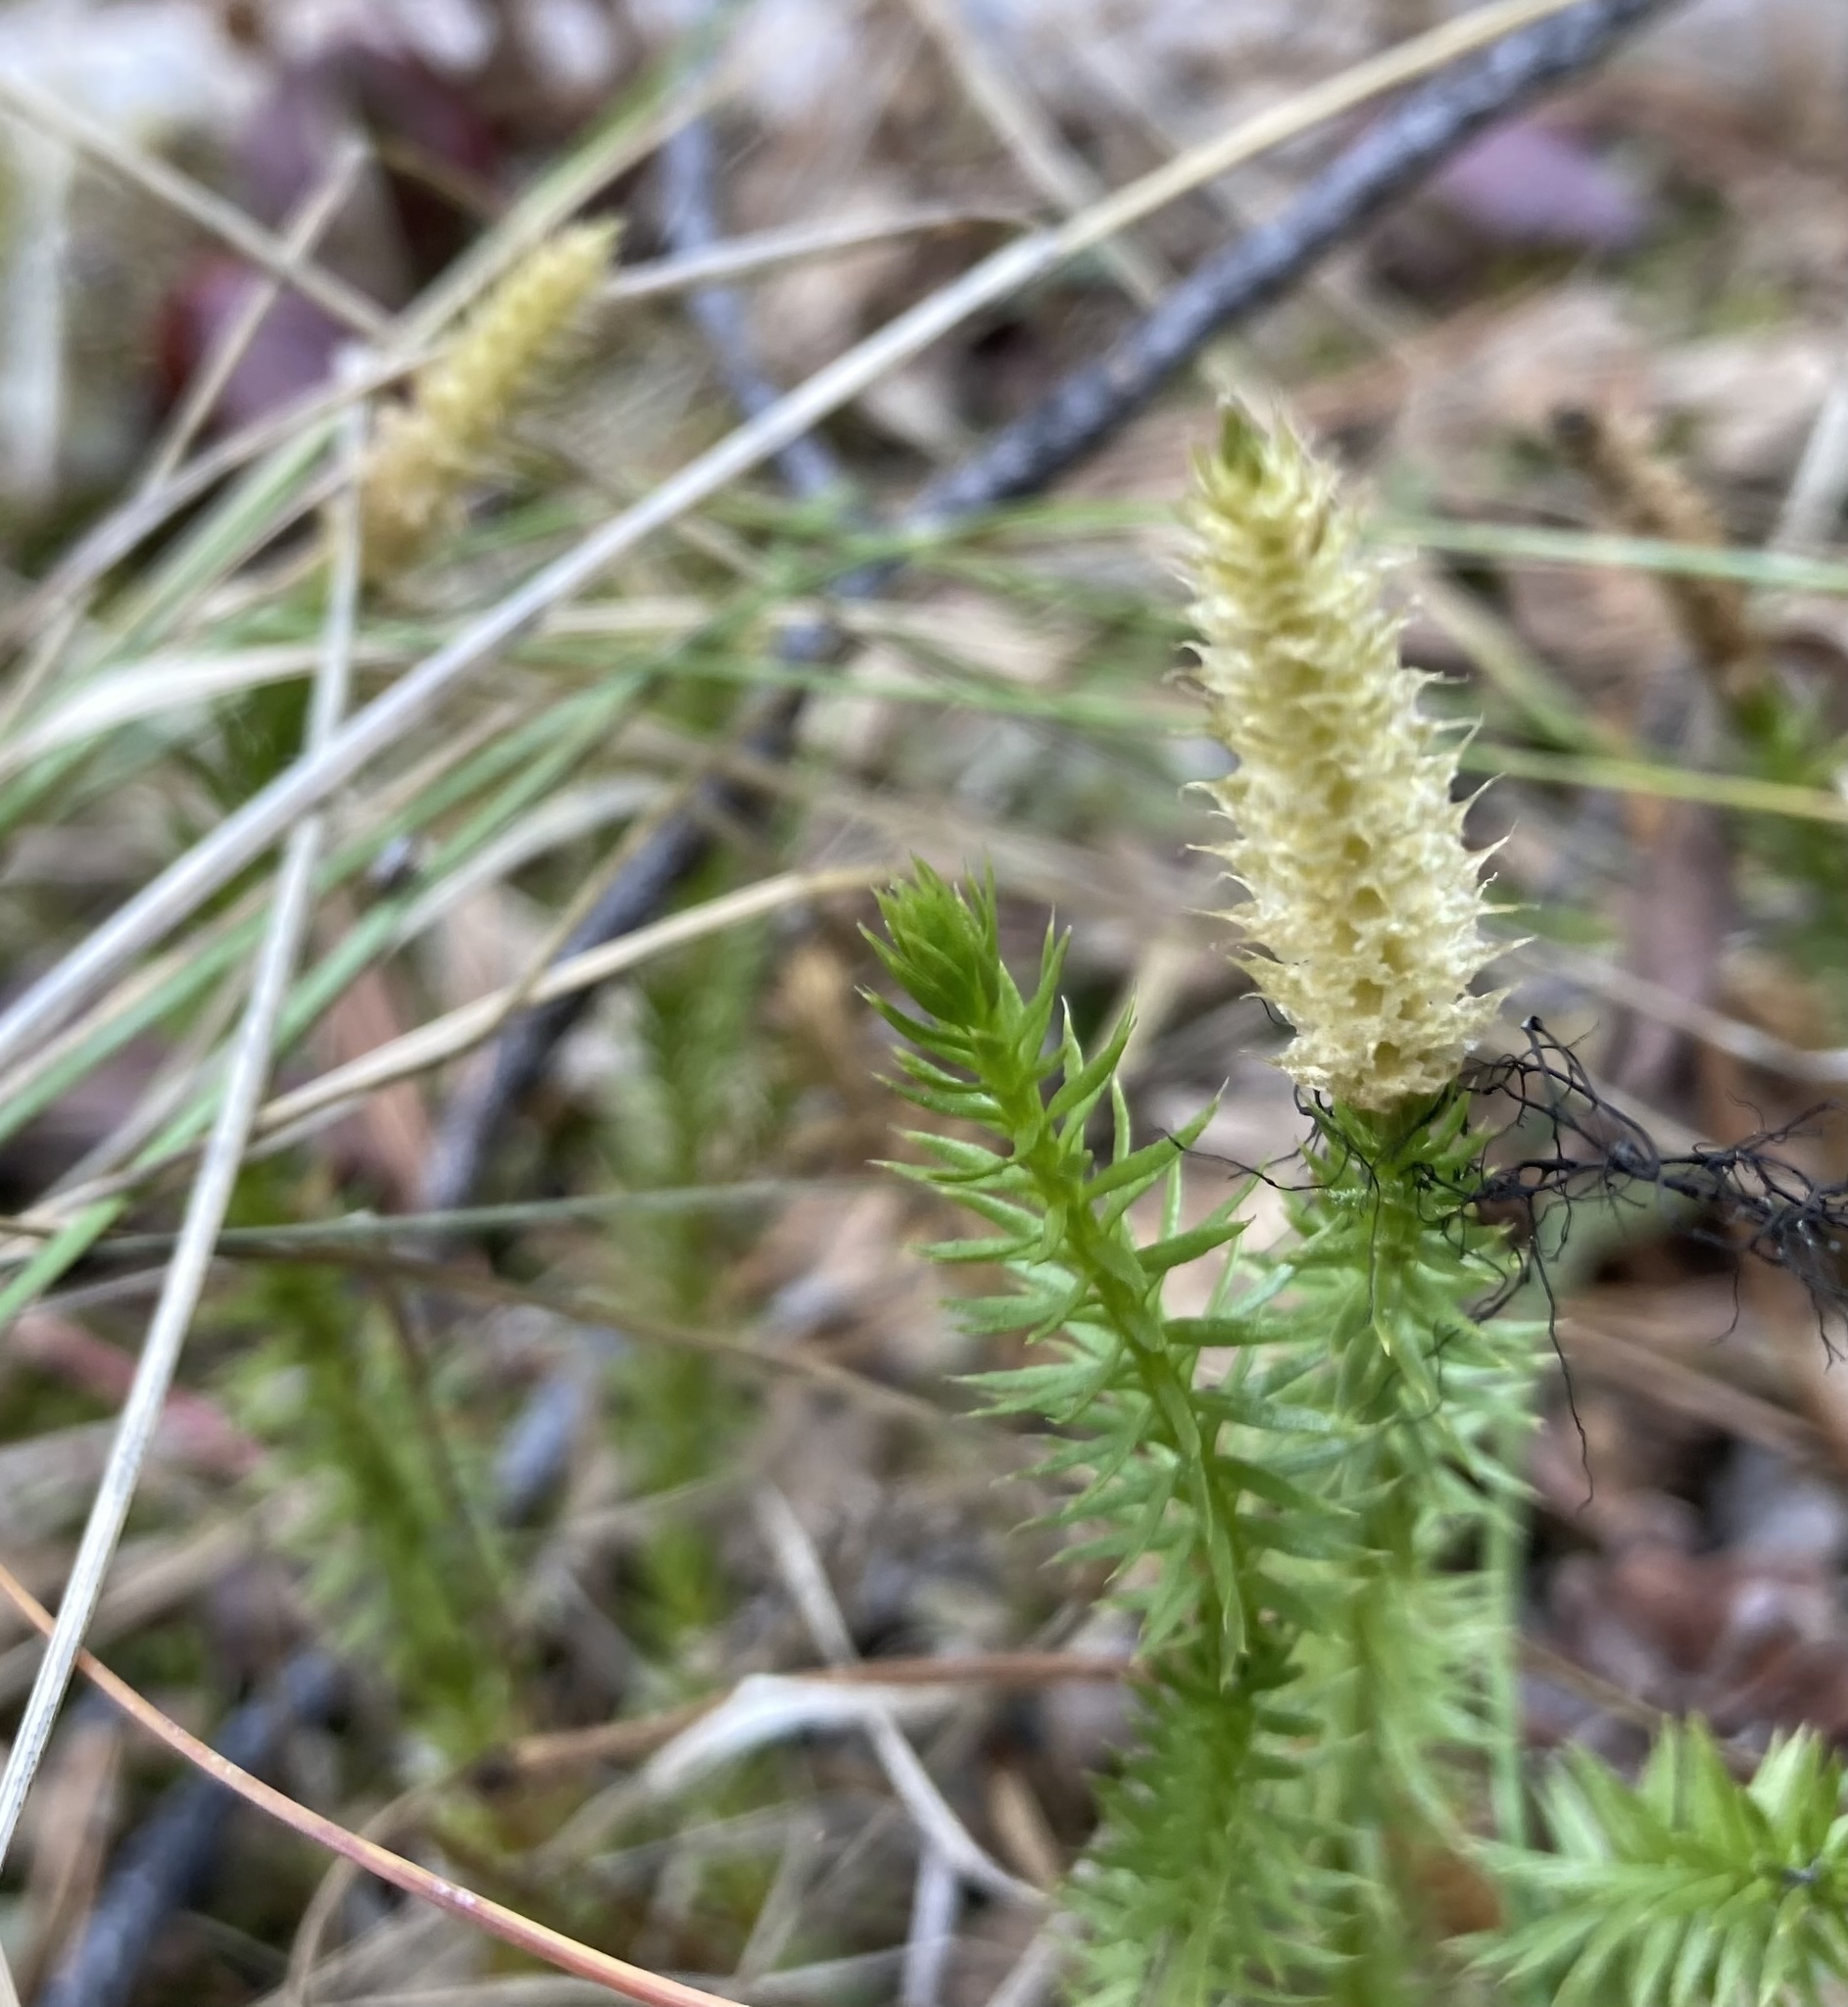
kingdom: Plantae
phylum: Tracheophyta
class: Lycopodiopsida
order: Lycopodiales
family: Lycopodiaceae
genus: Spinulum
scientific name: Spinulum annotinum
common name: Interrupted club-moss
